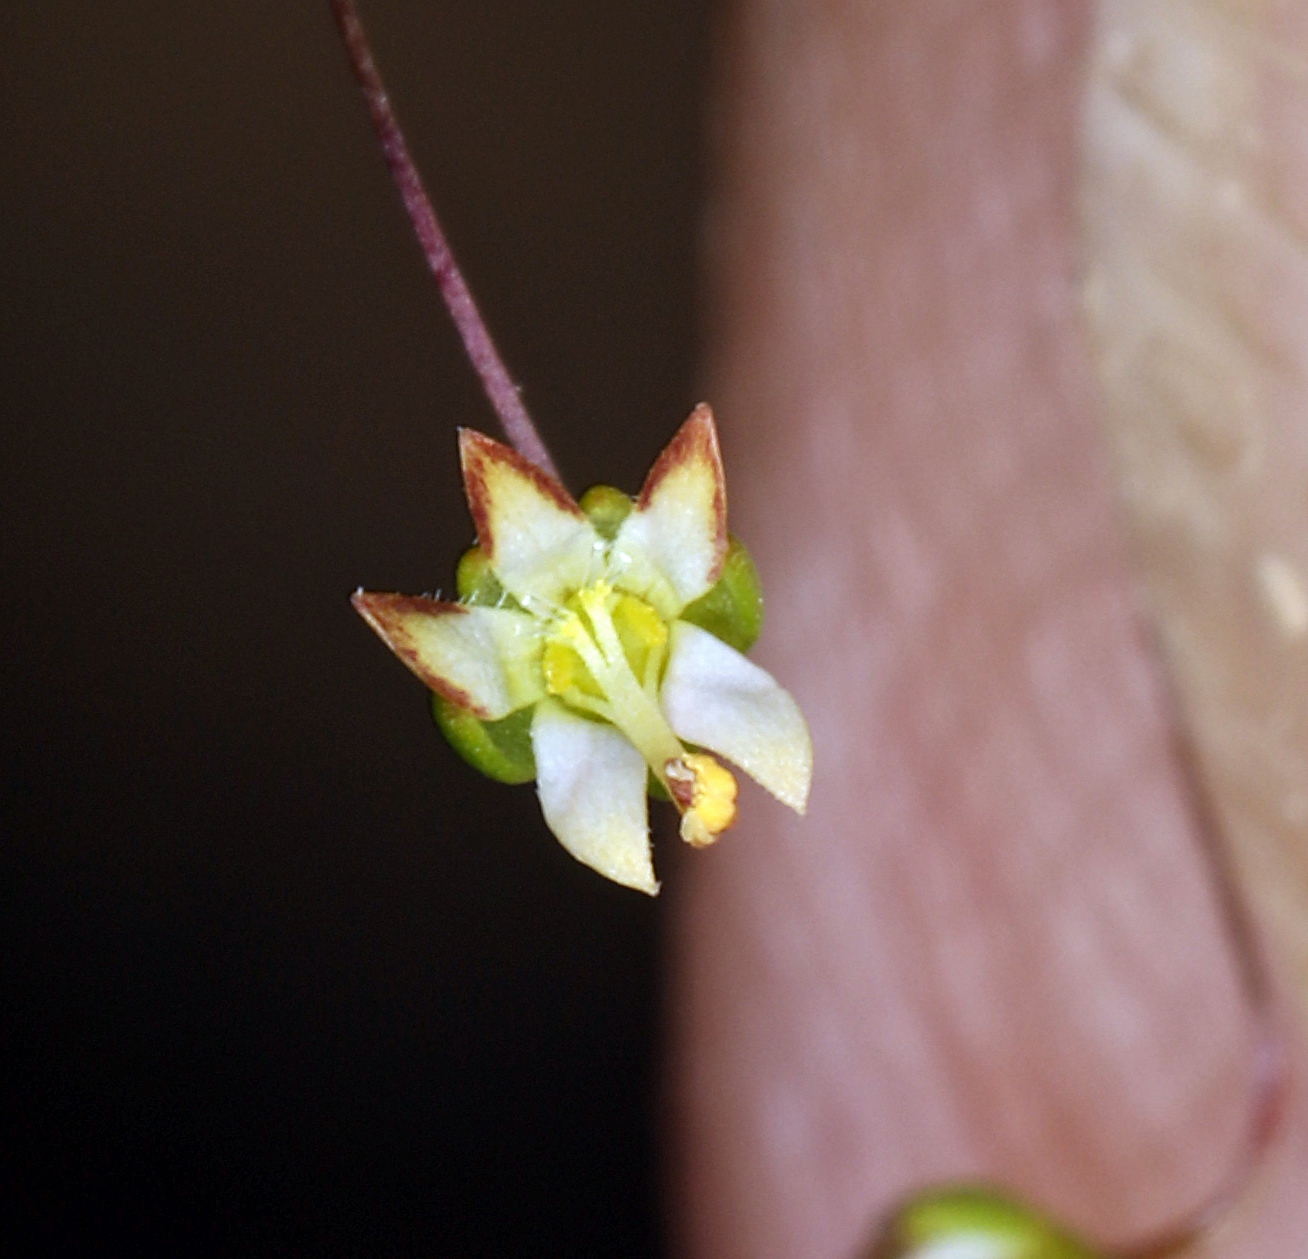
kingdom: Plantae
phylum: Tracheophyta
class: Magnoliopsida
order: Asterales
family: Campanulaceae
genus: Nemacladus
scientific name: Nemacladus morefieldii
